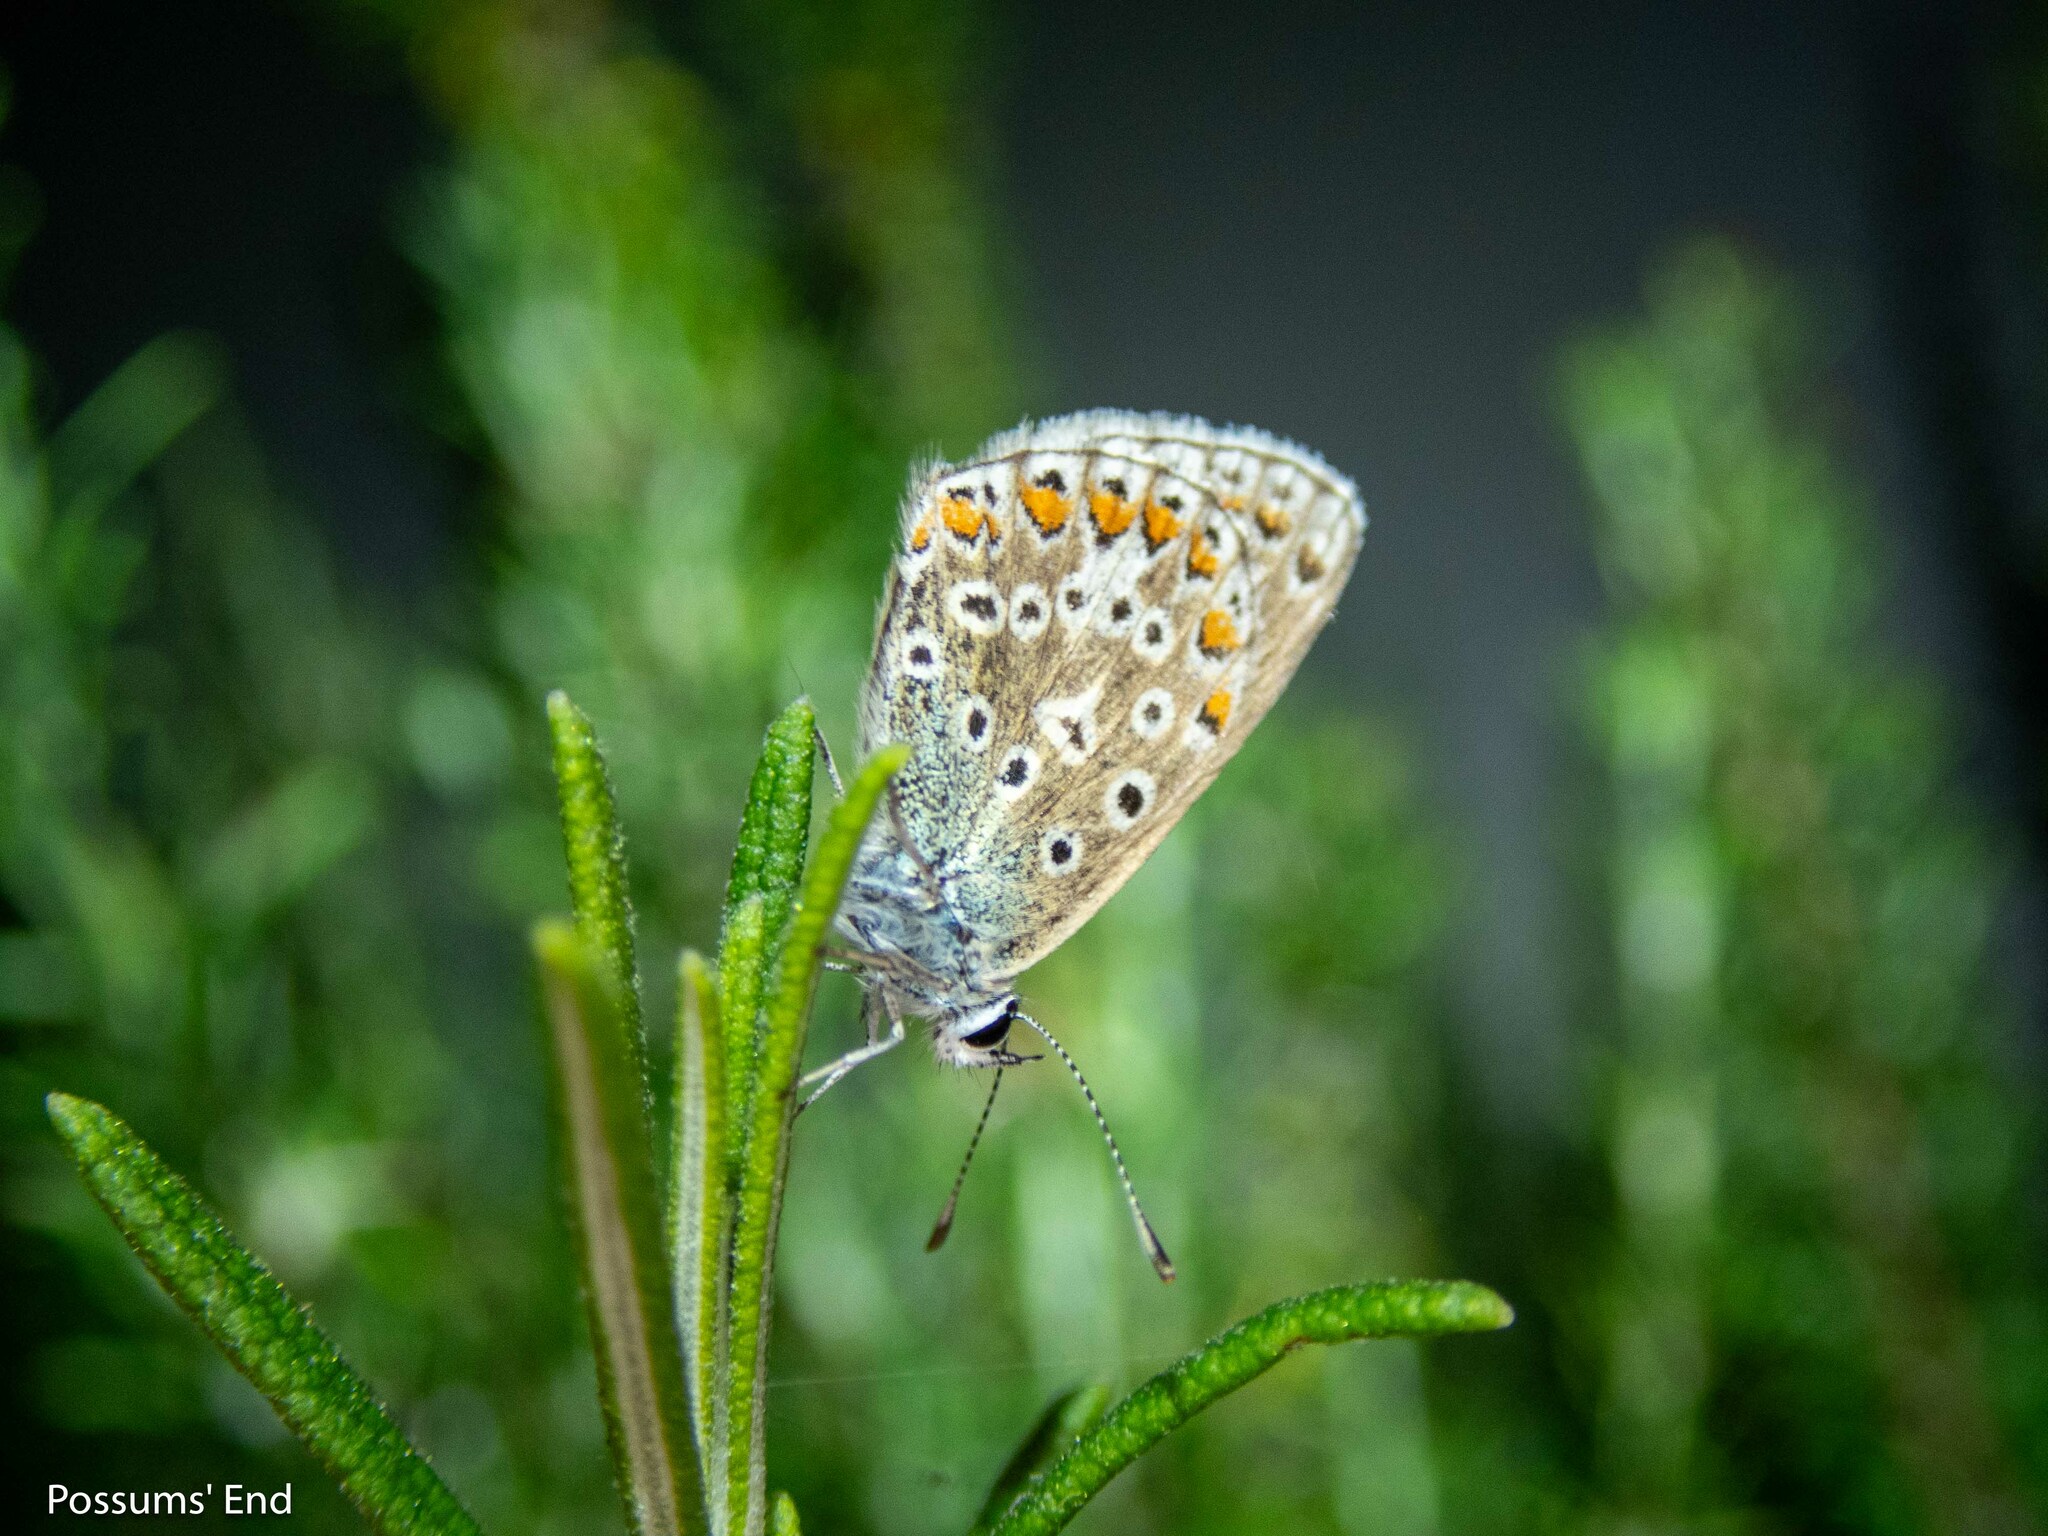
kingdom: Animalia
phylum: Arthropoda
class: Insecta
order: Lepidoptera
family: Lycaenidae
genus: Polyommatus
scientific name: Polyommatus icarus
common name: Common blue
